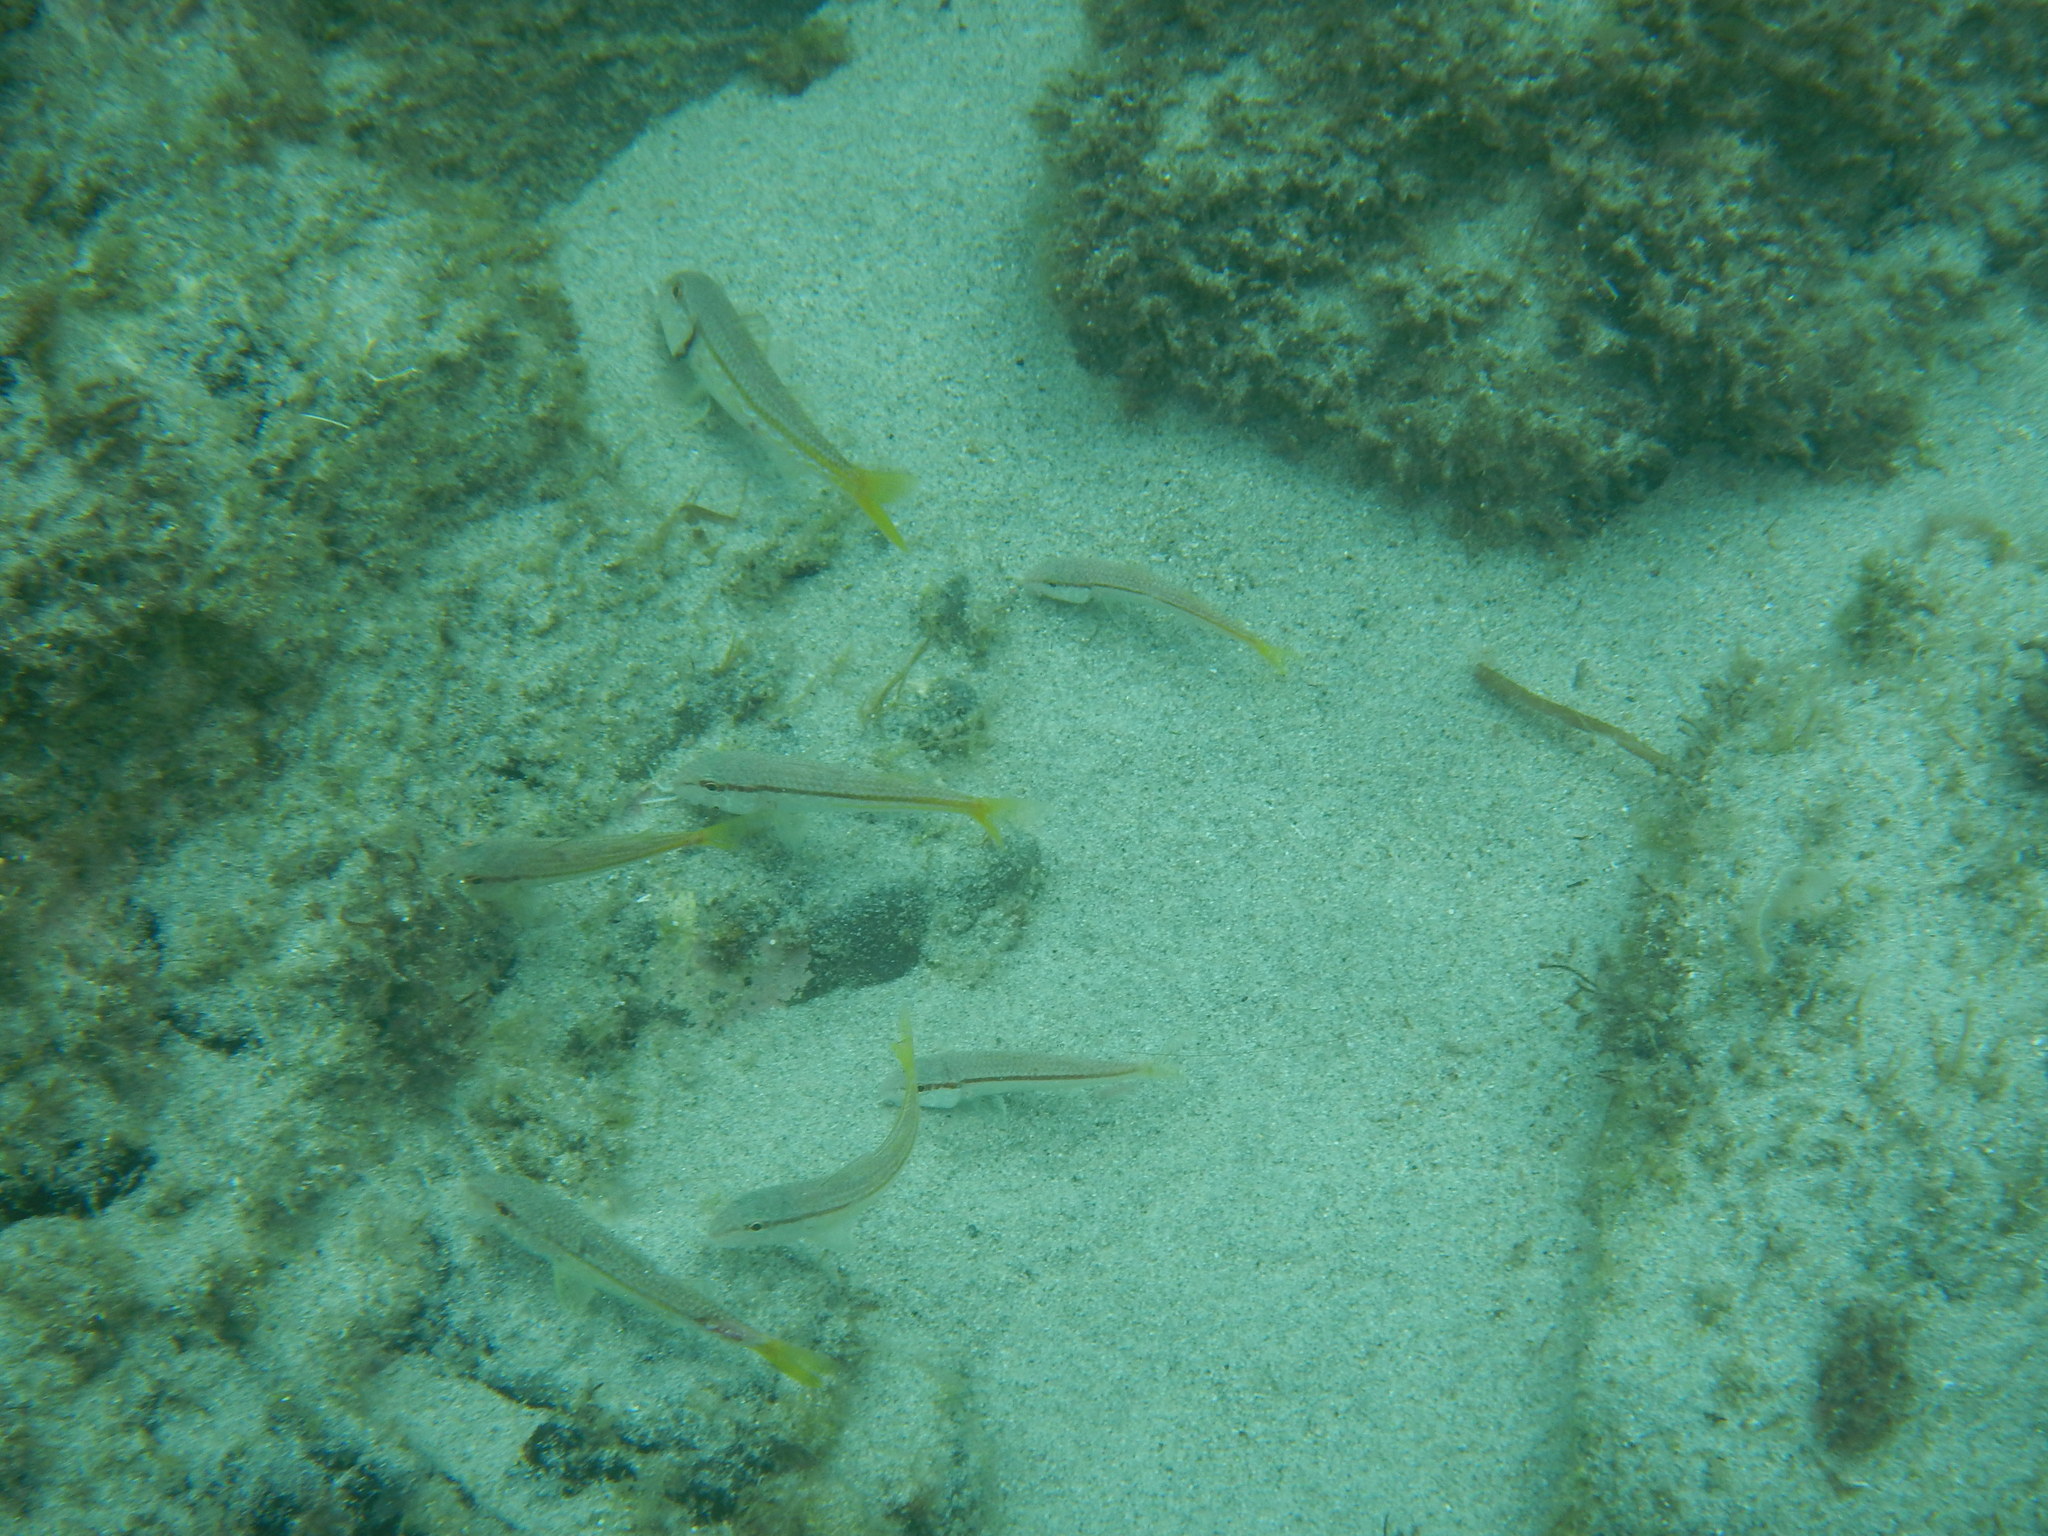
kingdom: Animalia
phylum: Chordata
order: Perciformes
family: Mullidae
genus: Mullus
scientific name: Mullus barbatus
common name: Blunt-snouted mullet
